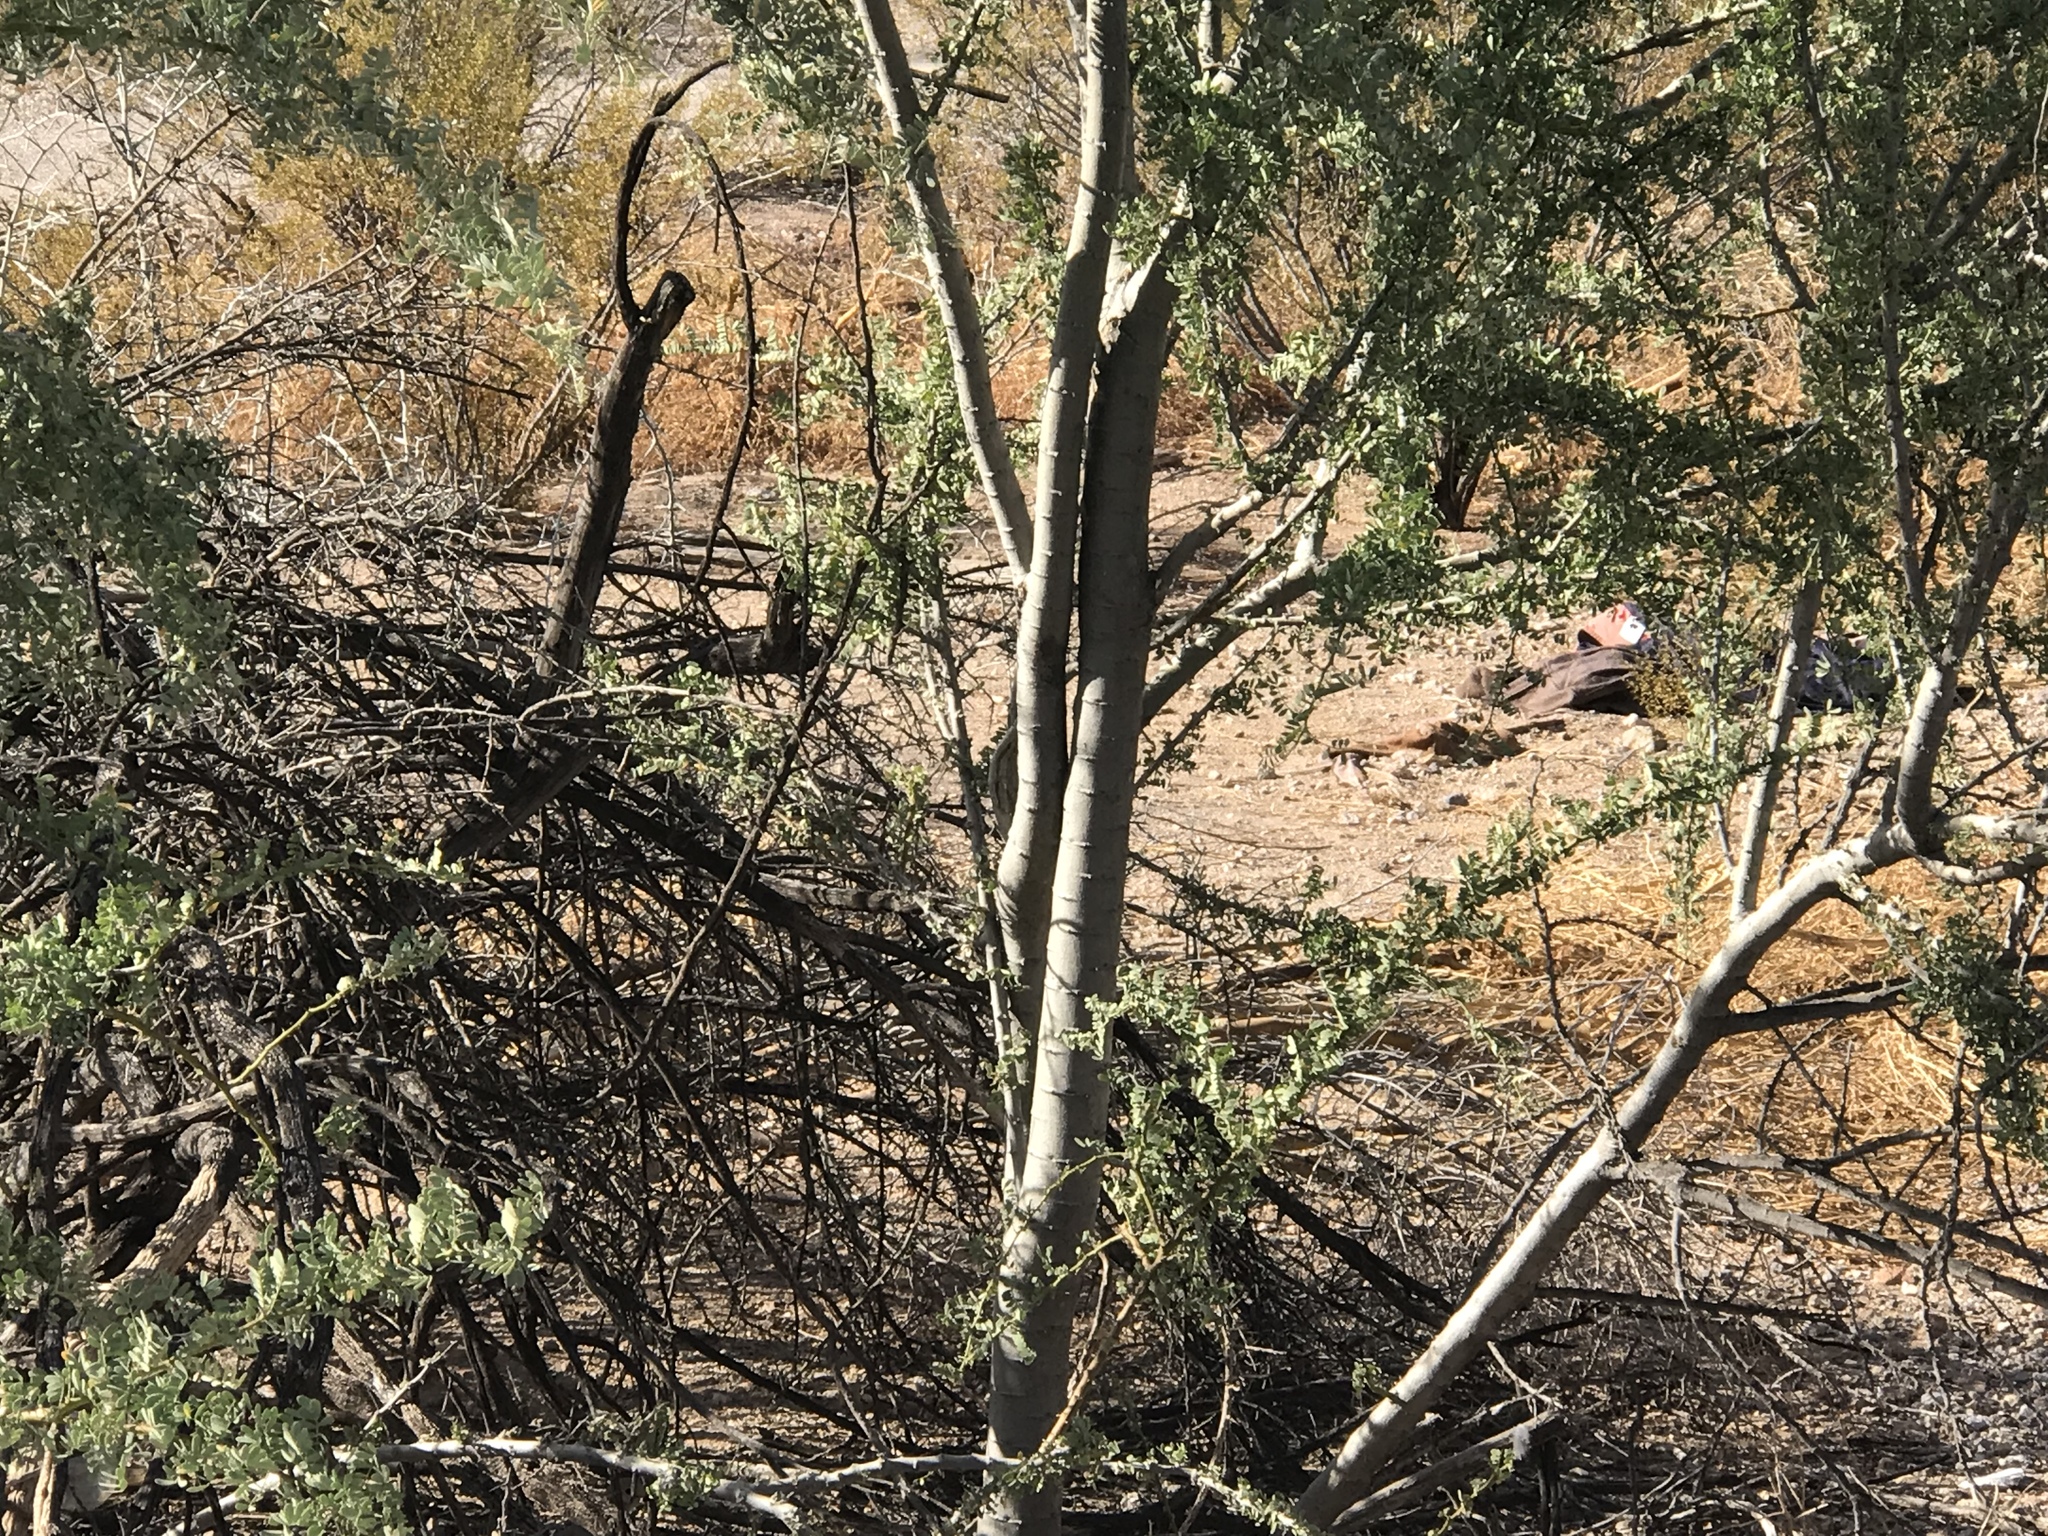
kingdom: Plantae
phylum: Tracheophyta
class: Magnoliopsida
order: Fabales
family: Fabaceae
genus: Olneya
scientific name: Olneya tesota
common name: Desert ironwood
